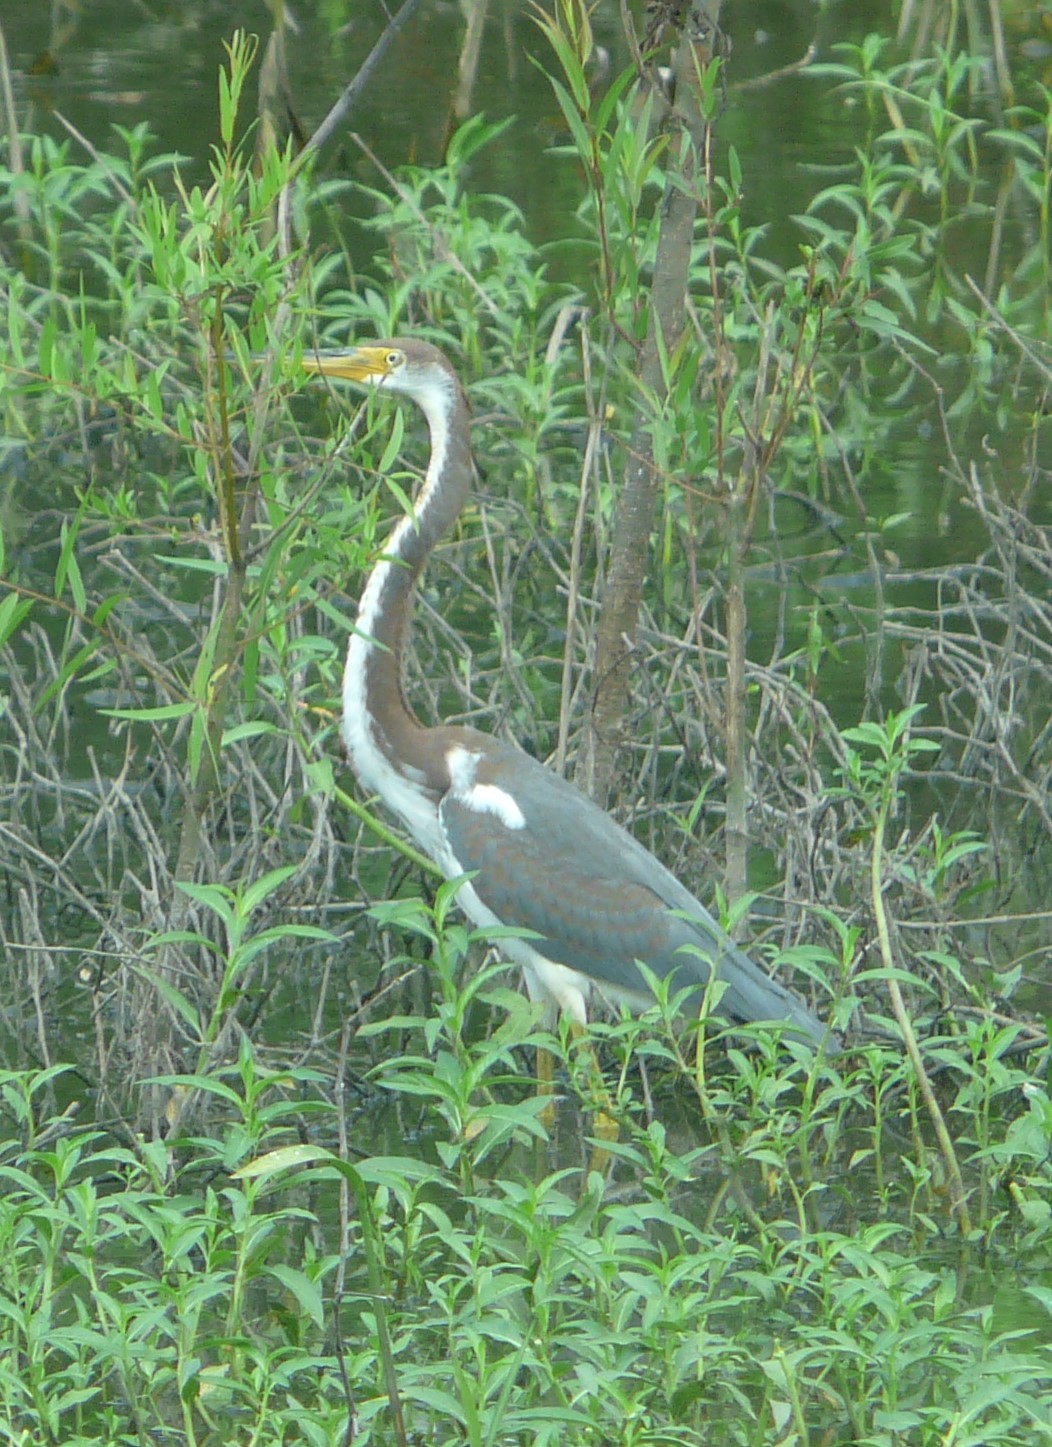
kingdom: Animalia
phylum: Chordata
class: Aves
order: Pelecaniformes
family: Ardeidae
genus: Egretta
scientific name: Egretta tricolor
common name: Tricolored heron
